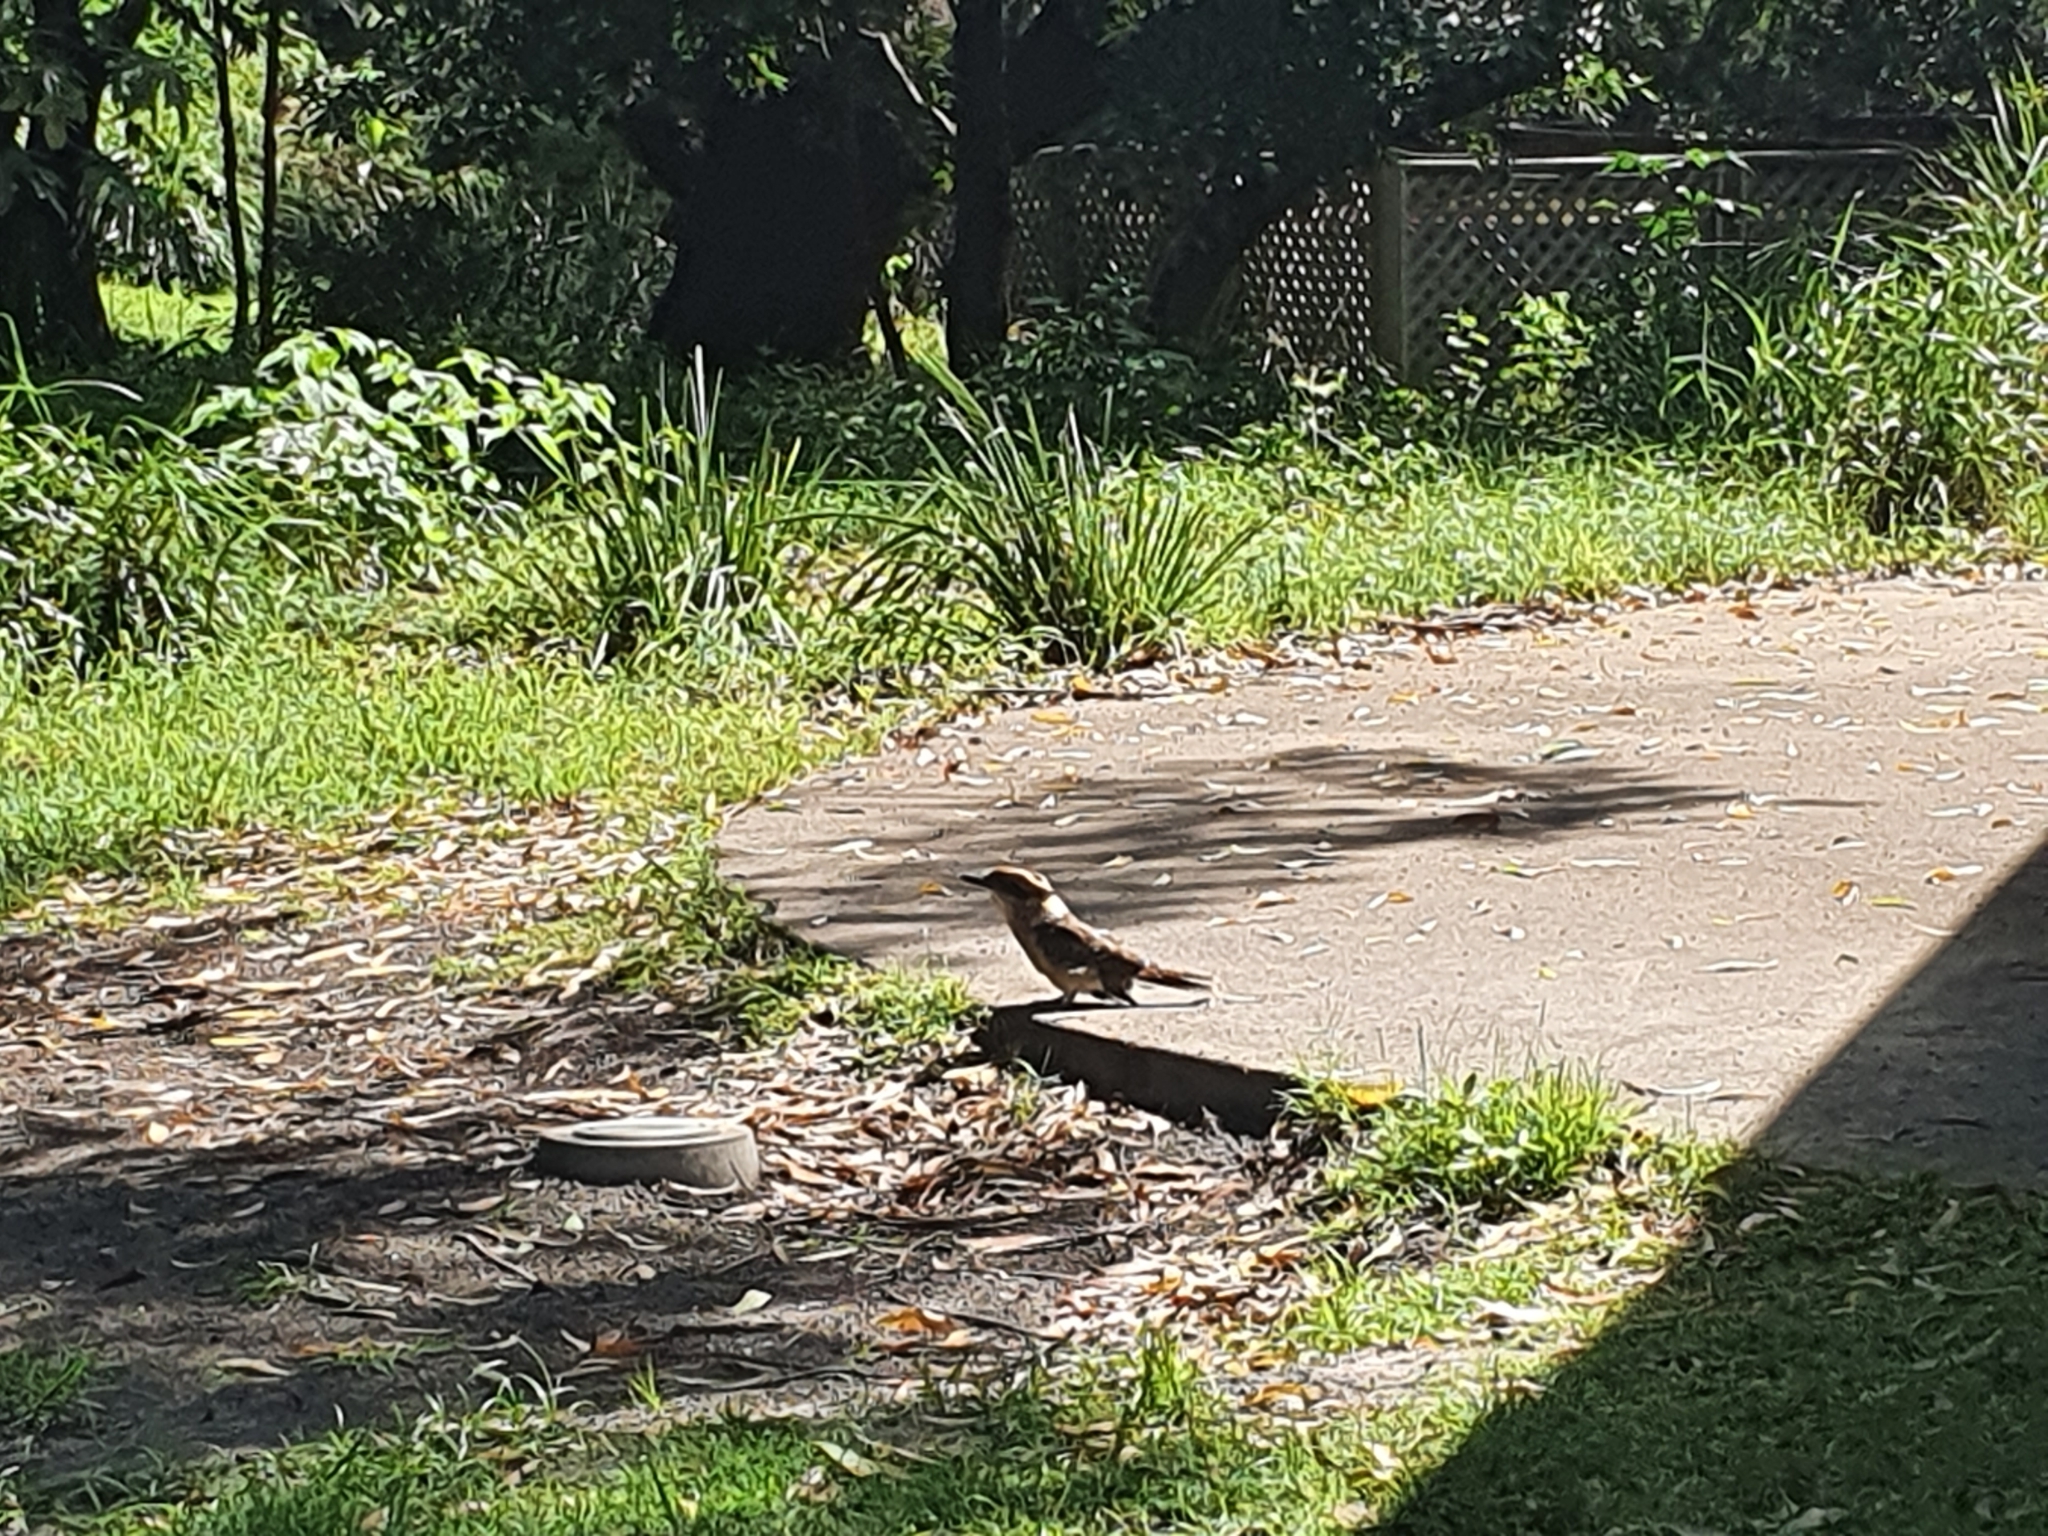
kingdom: Animalia
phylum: Chordata
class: Aves
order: Coraciiformes
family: Alcedinidae
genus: Dacelo
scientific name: Dacelo novaeguineae
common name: Laughing kookaburra
